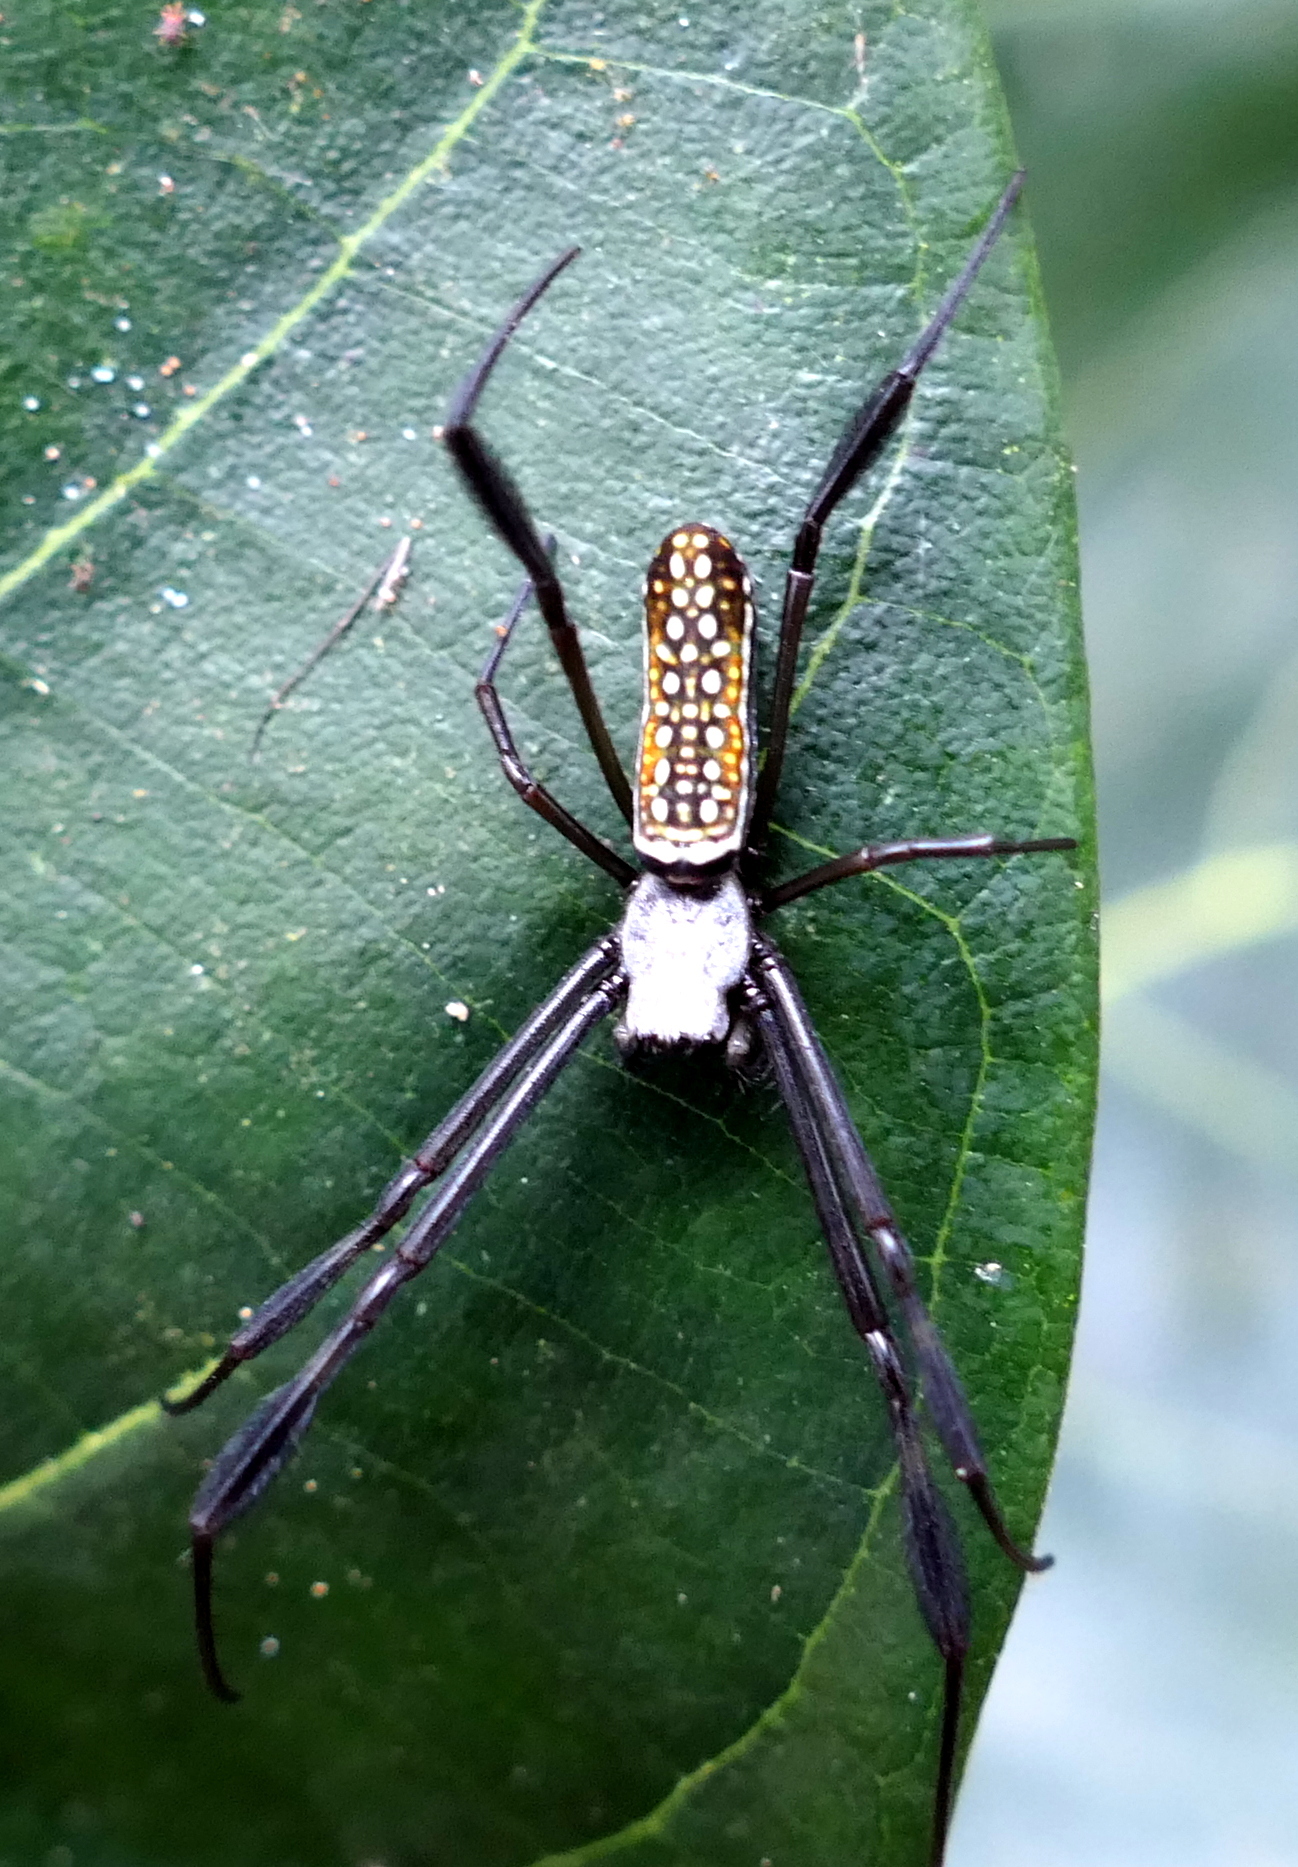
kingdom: Animalia
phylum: Arthropoda
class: Arachnida
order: Araneae
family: Araneidae
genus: Trichonephila
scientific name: Trichonephila clavipes
